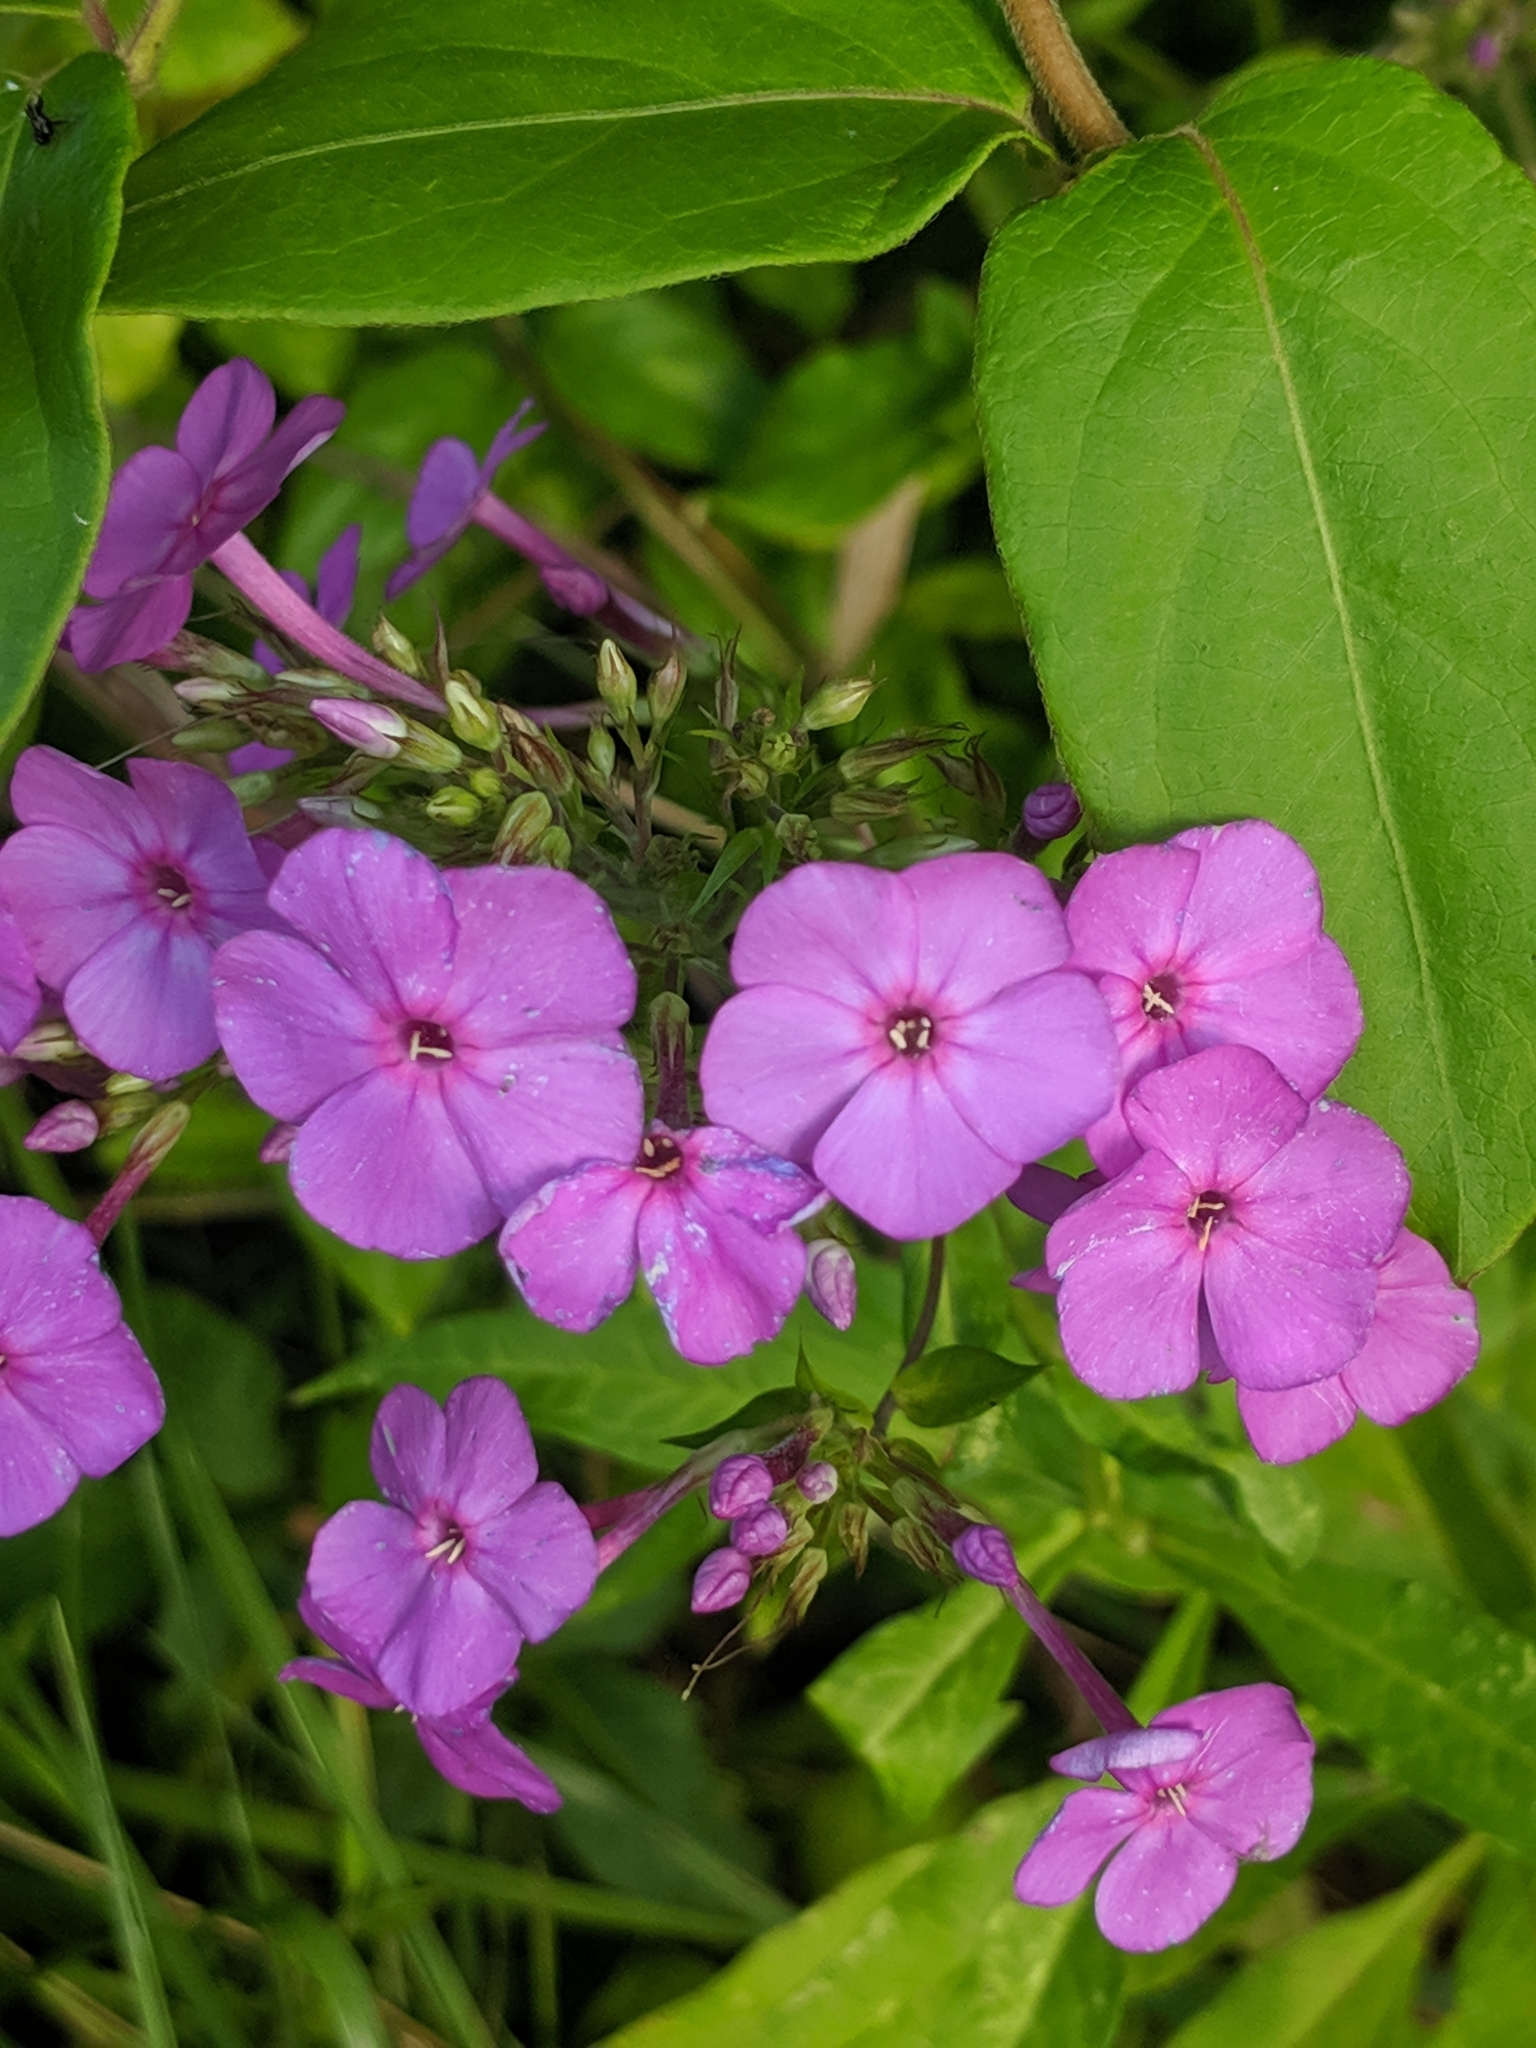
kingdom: Plantae
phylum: Tracheophyta
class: Magnoliopsida
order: Ericales
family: Polemoniaceae
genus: Phlox
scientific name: Phlox paniculata
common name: Fall phlox
